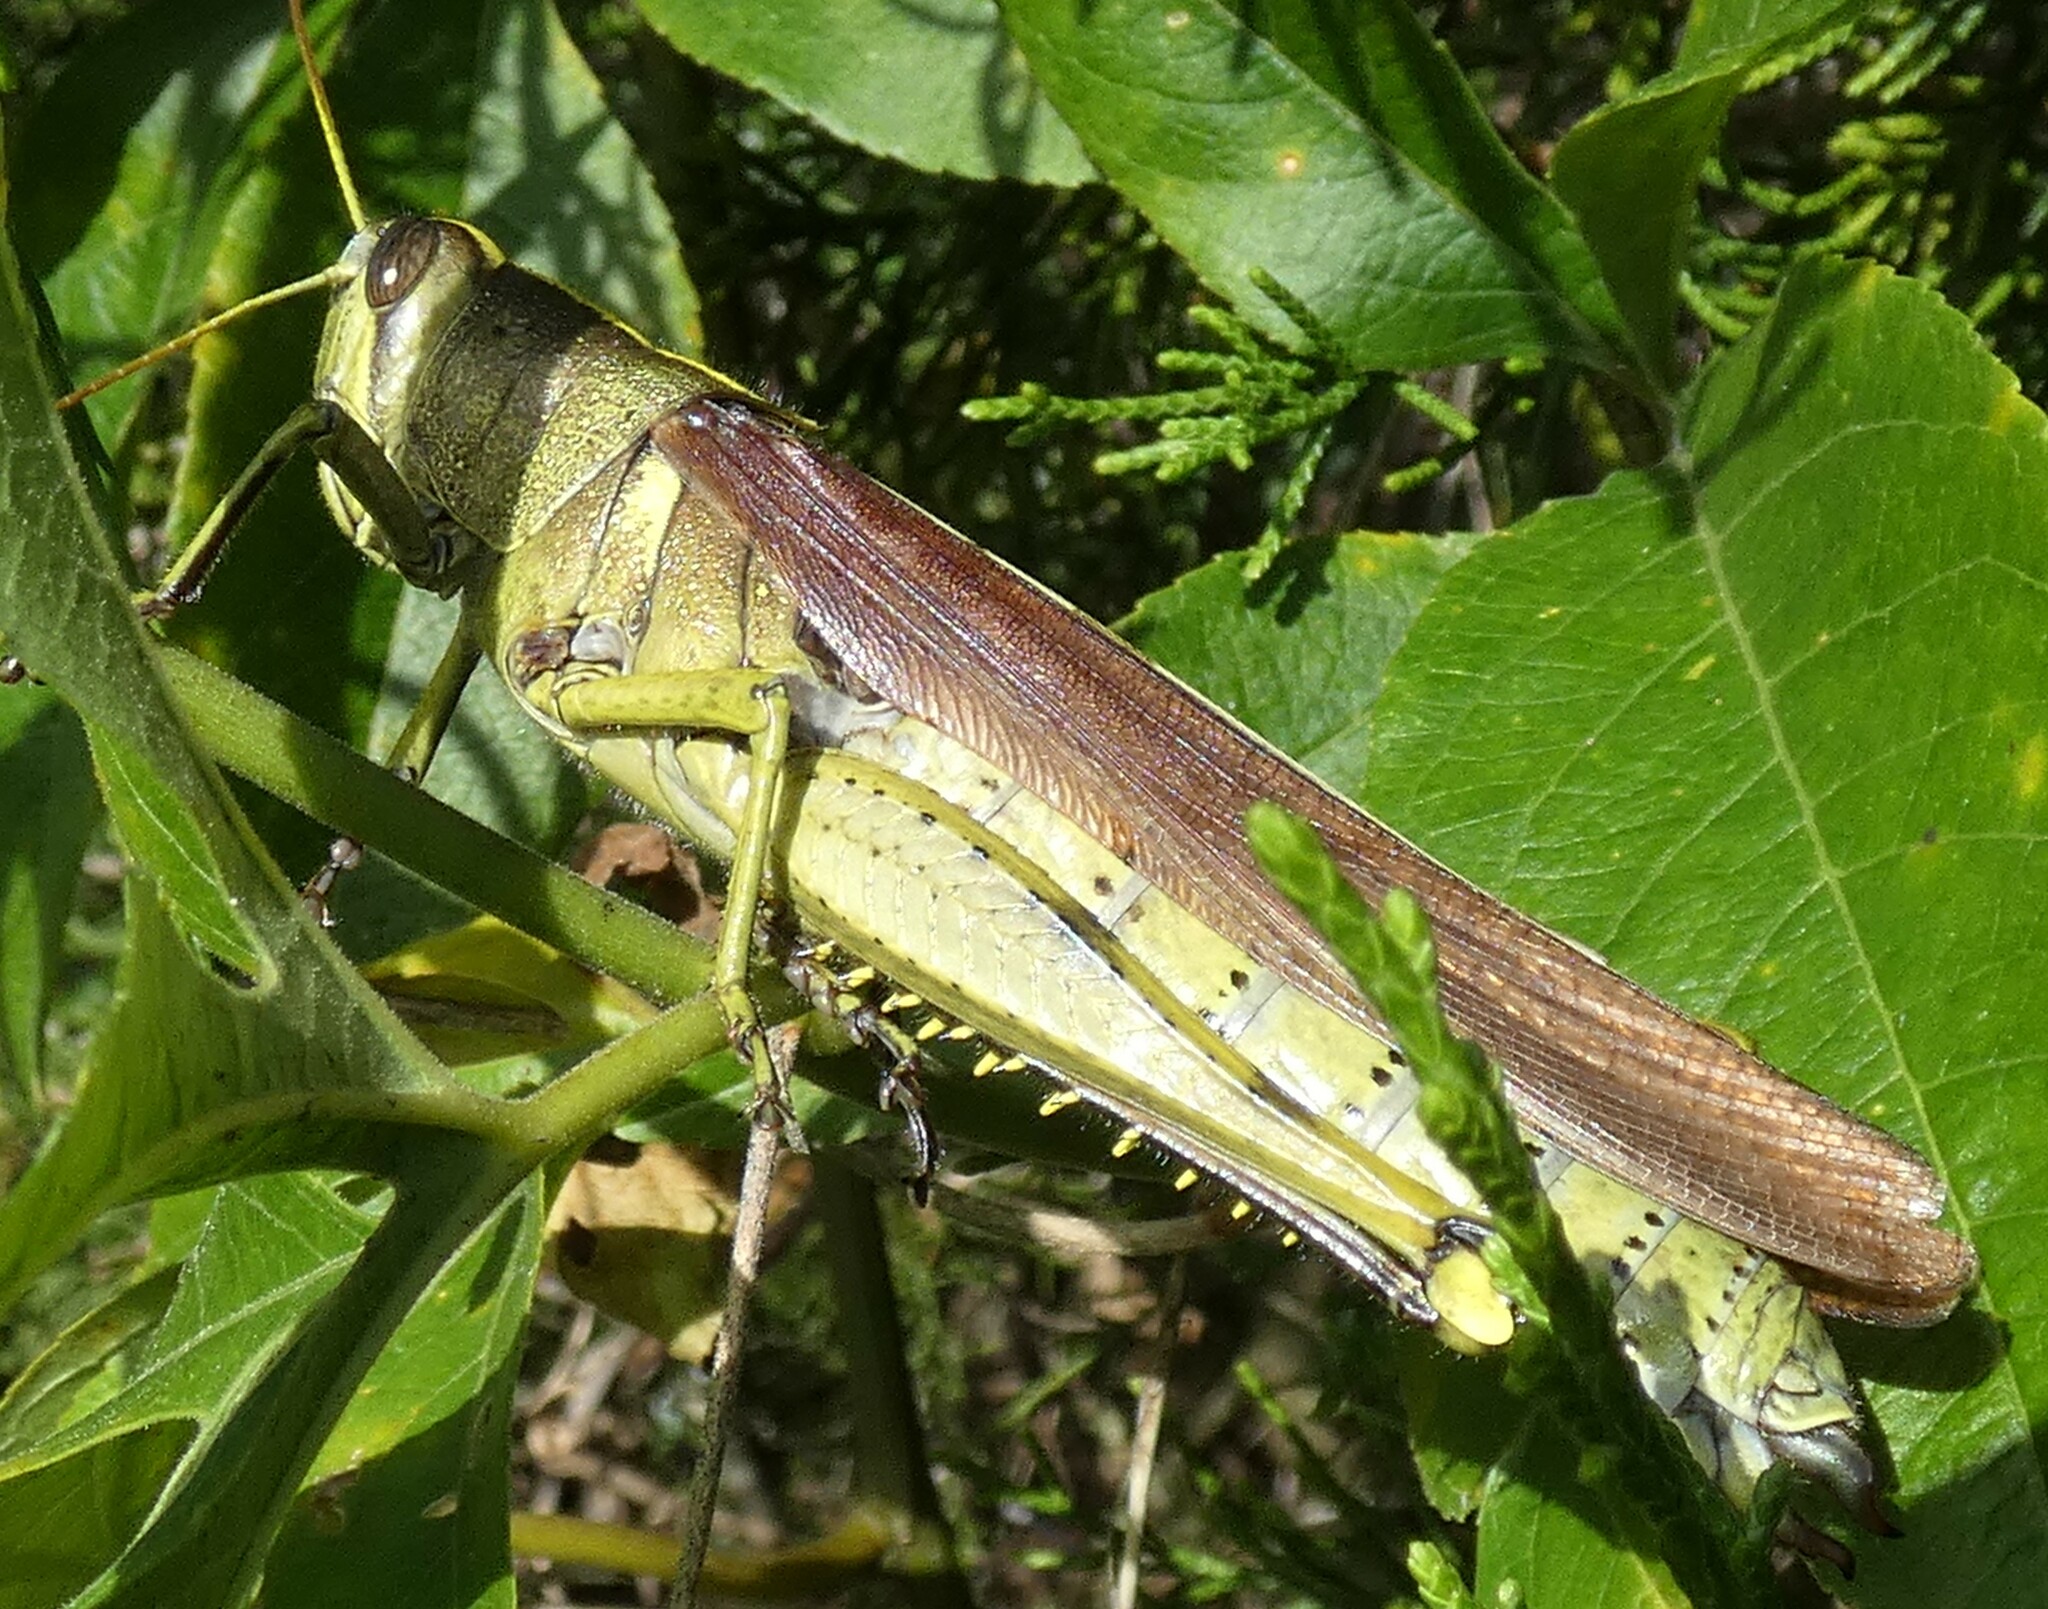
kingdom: Animalia
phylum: Arthropoda
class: Insecta
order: Orthoptera
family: Acrididae
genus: Schistocerca
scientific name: Schistocerca obscura
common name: Obscure bird grasshopper
